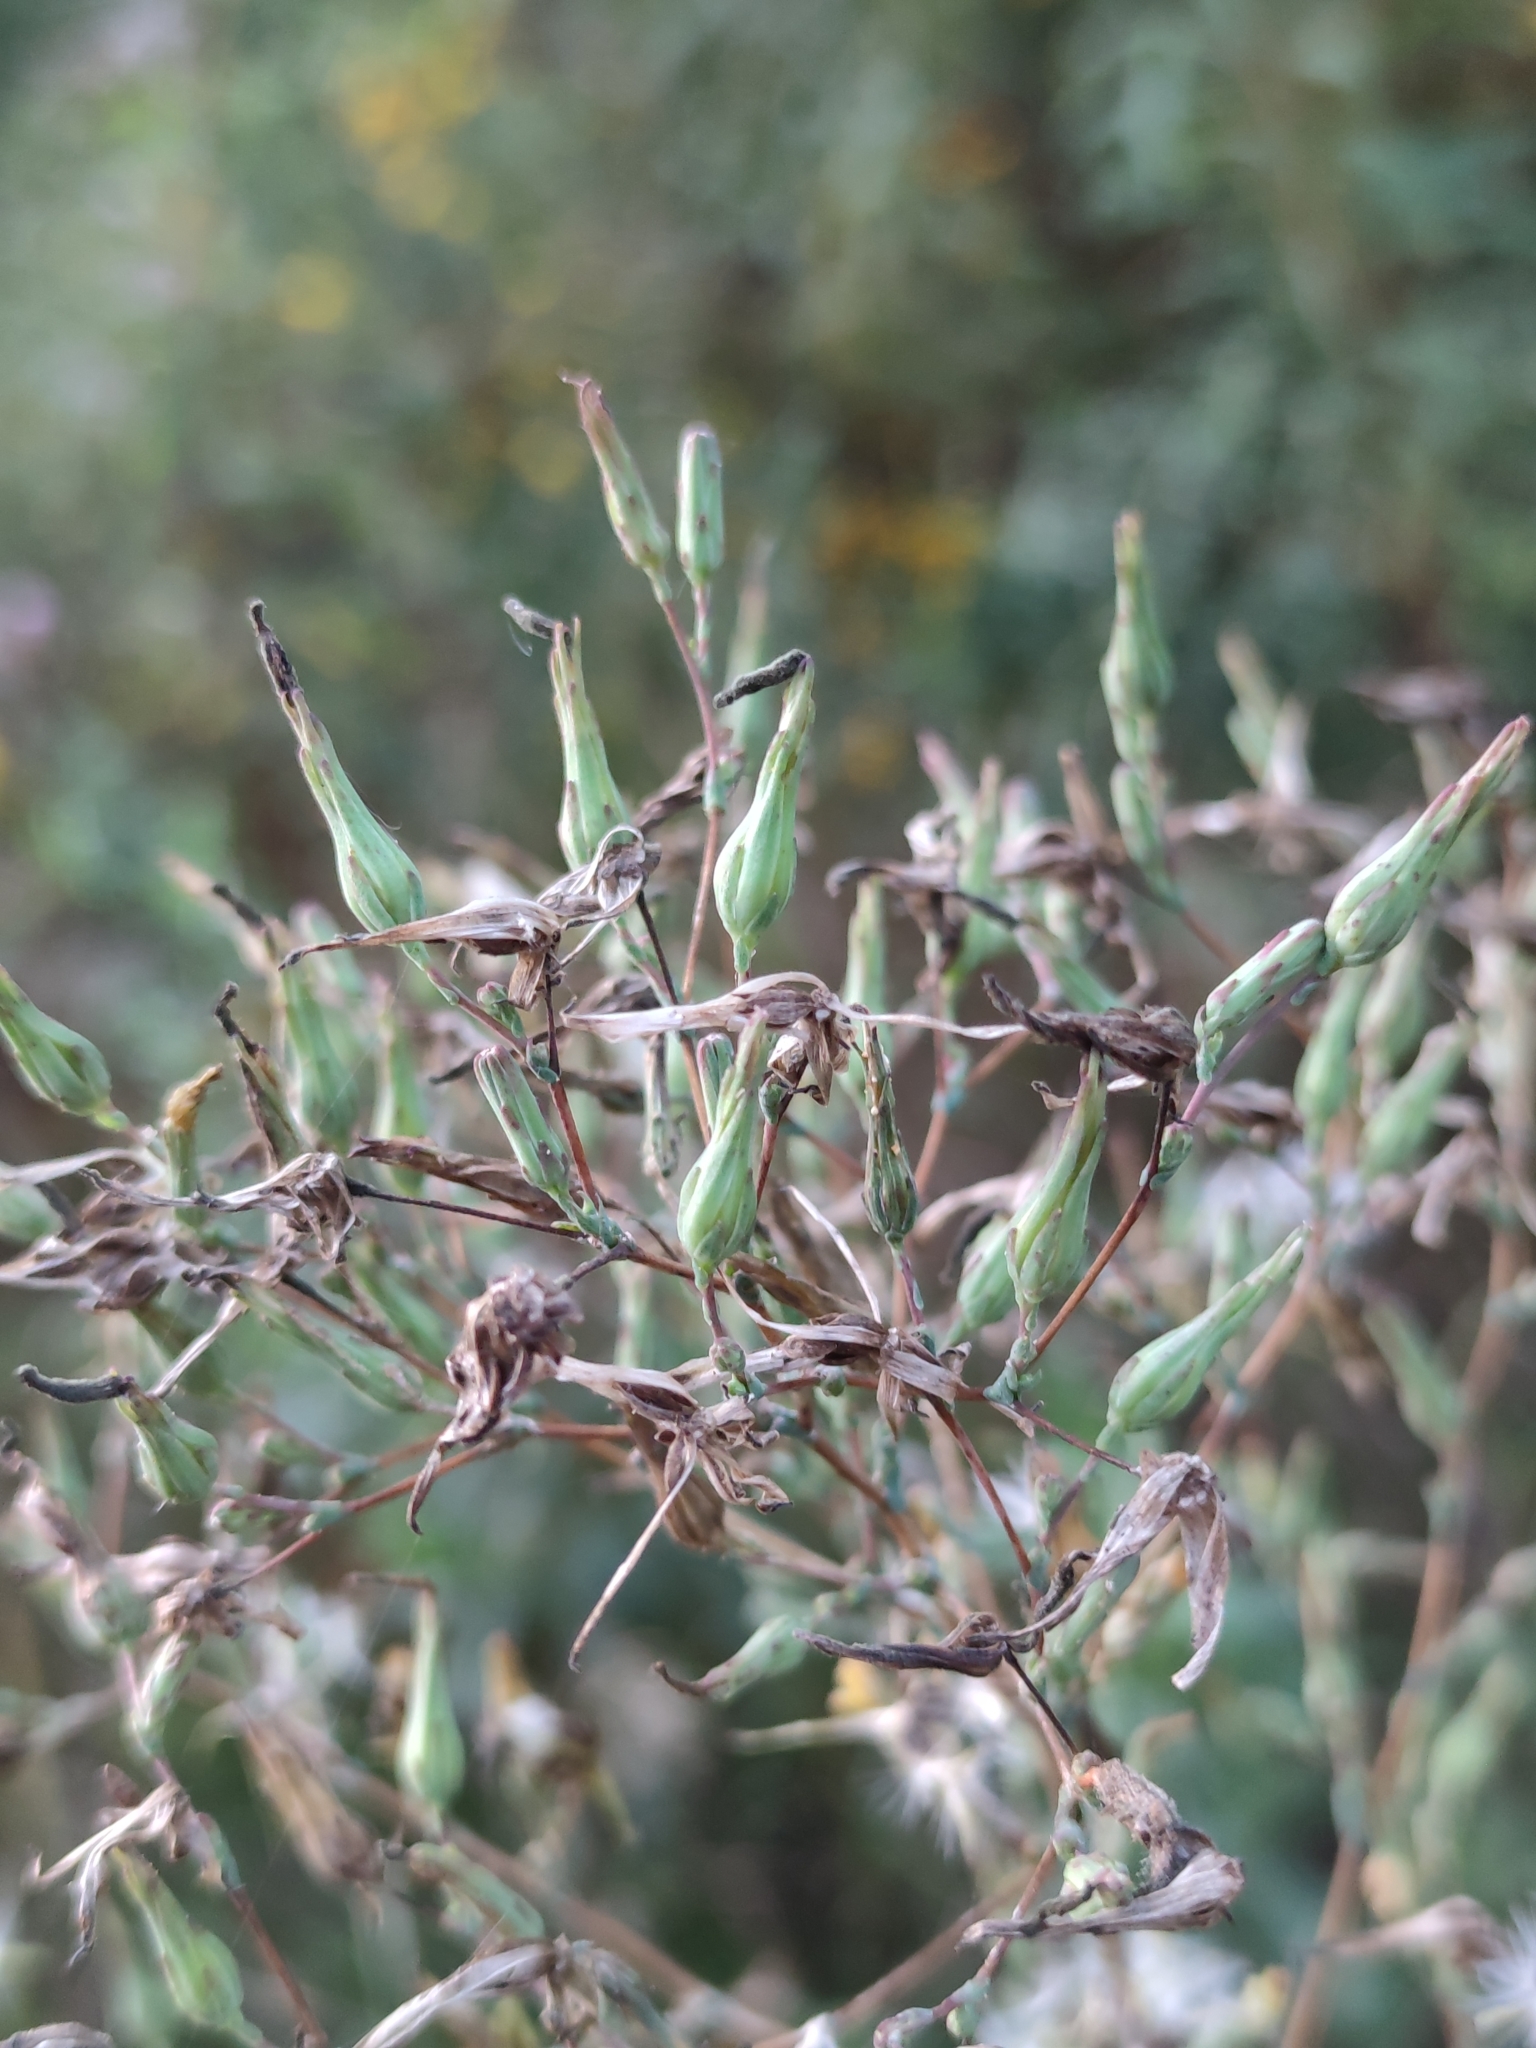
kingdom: Plantae
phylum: Tracheophyta
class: Magnoliopsida
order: Asterales
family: Asteraceae
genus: Lactuca
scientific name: Lactuca serriola
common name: Prickly lettuce
